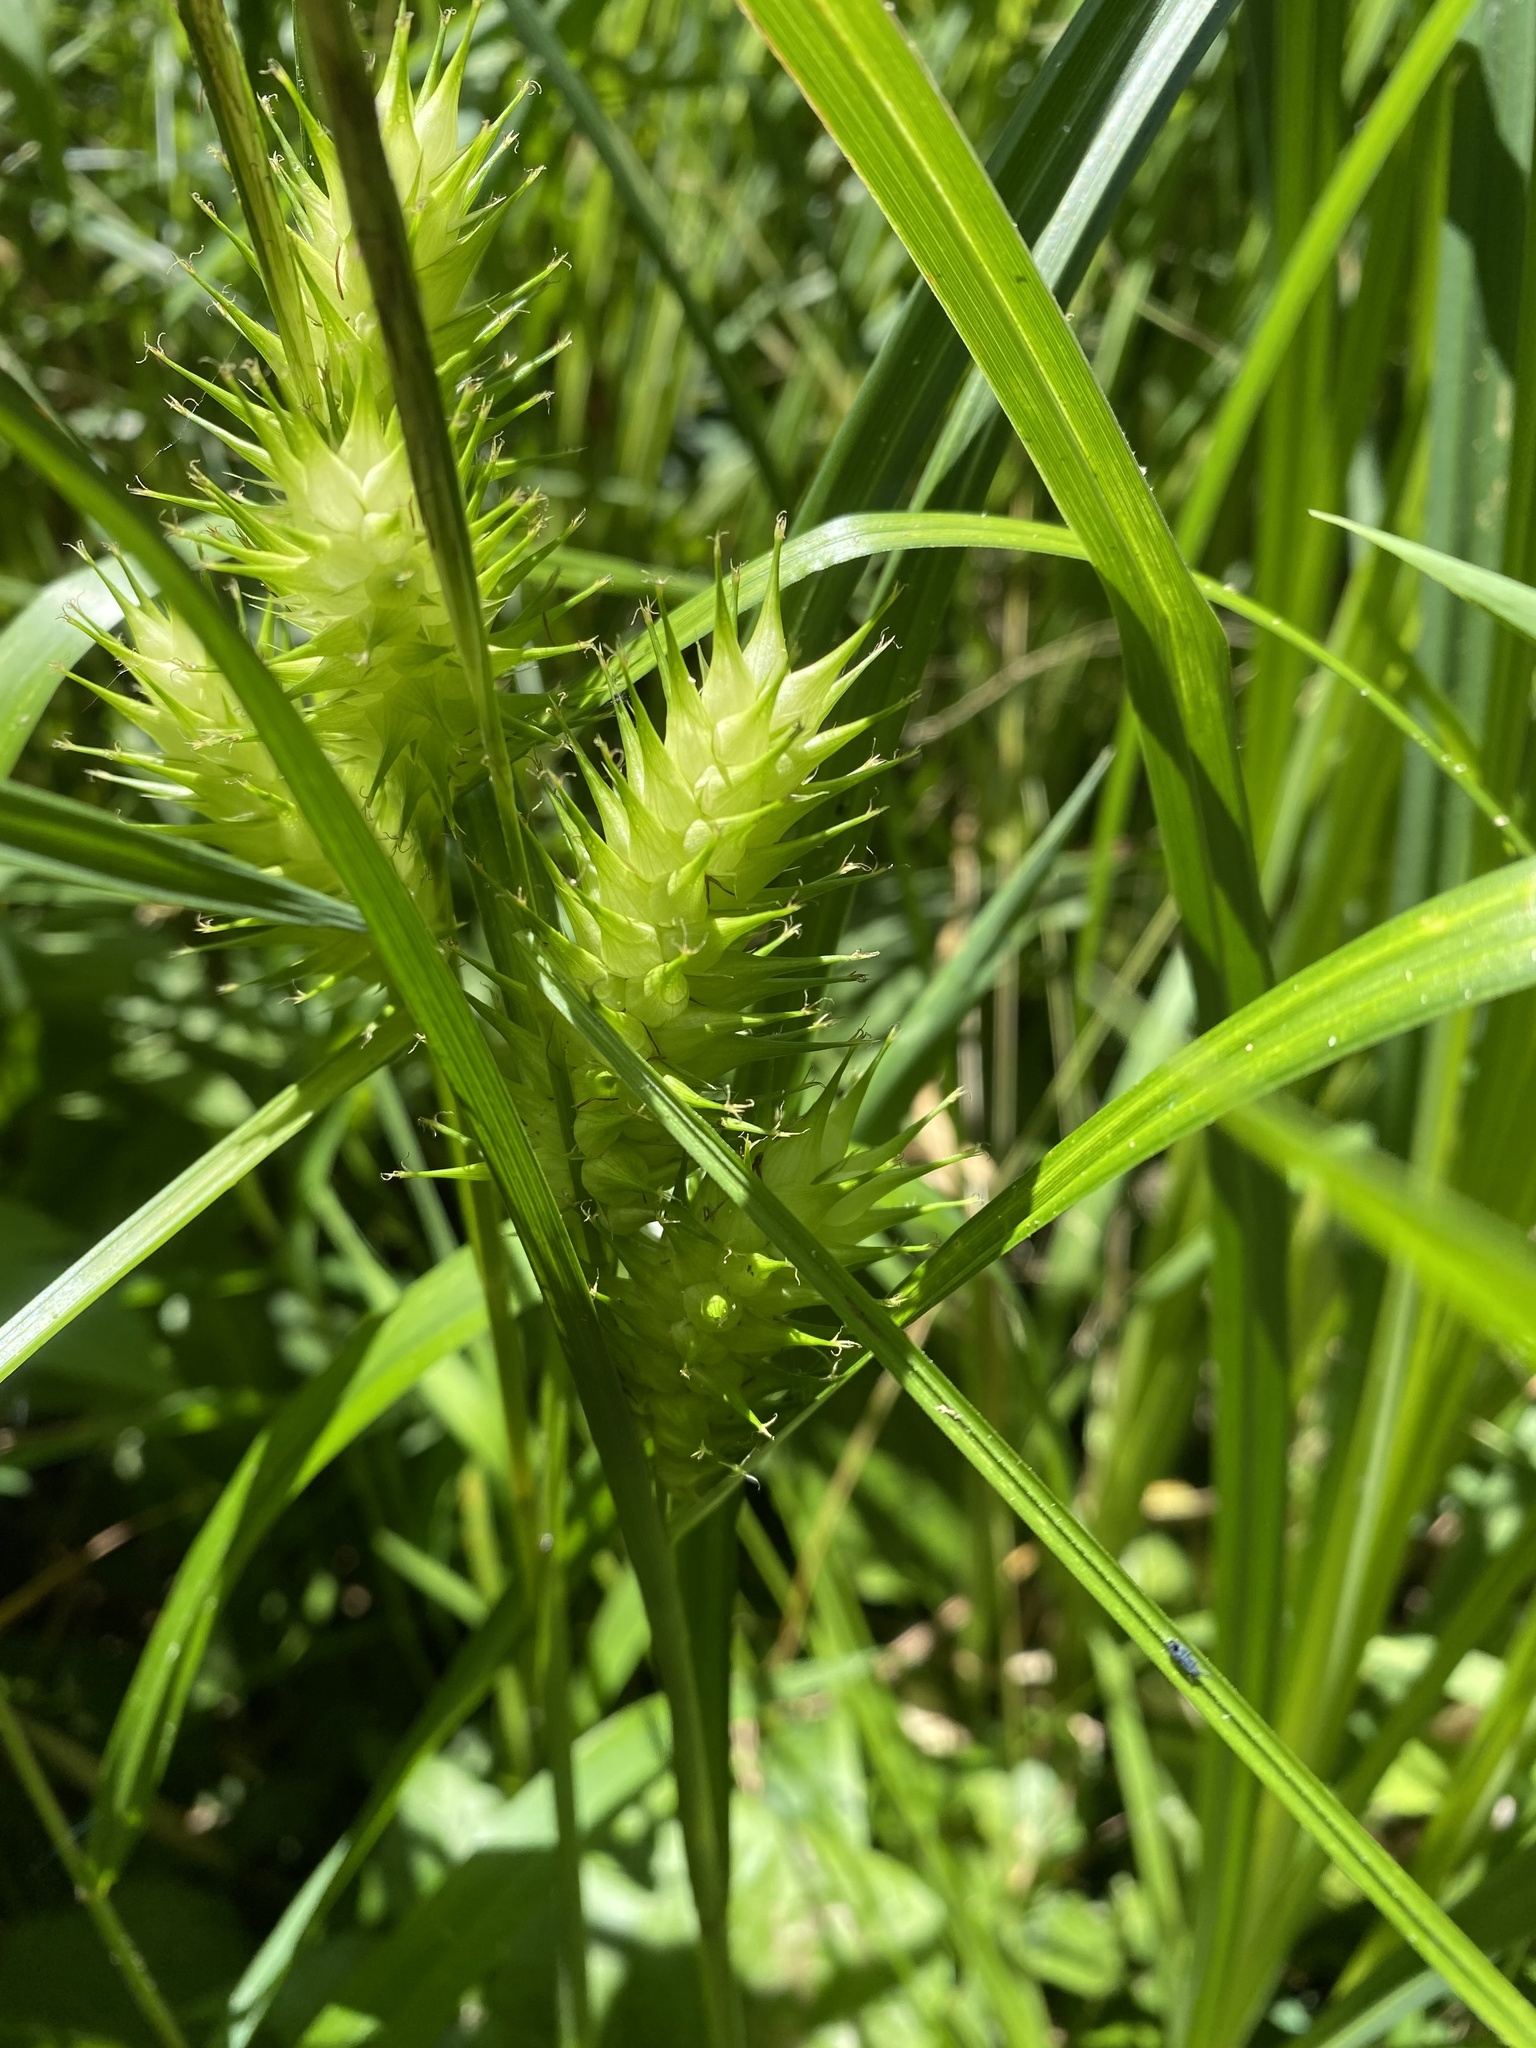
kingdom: Plantae
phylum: Tracheophyta
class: Liliopsida
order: Poales
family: Cyperaceae
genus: Carex
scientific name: Carex lupulina
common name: Hop sedge
